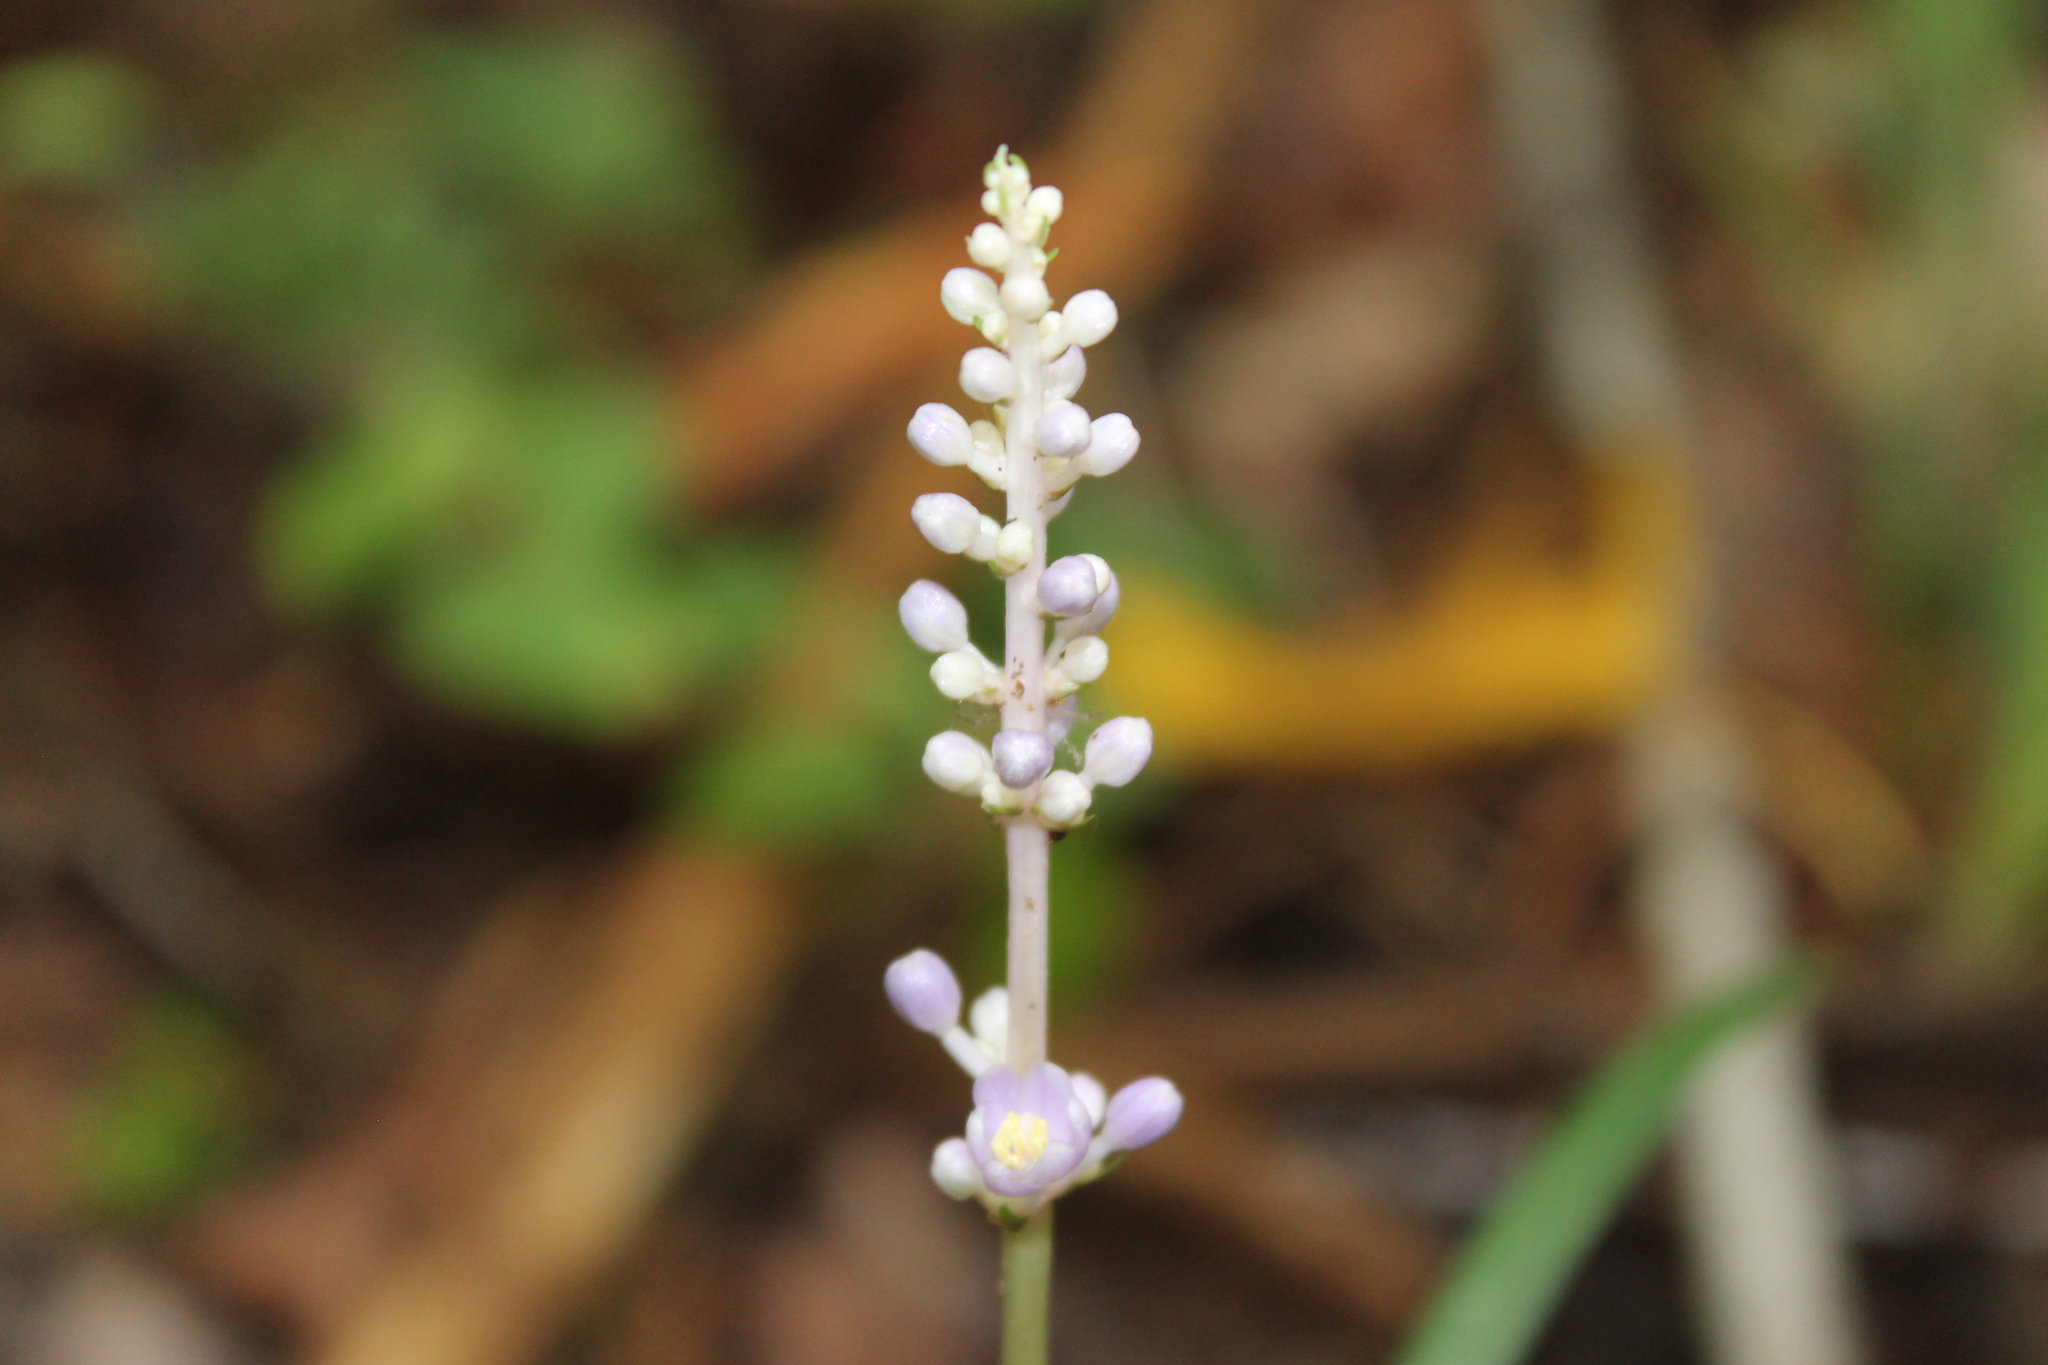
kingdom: Plantae
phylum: Tracheophyta
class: Liliopsida
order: Asparagales
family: Asparagaceae
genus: Liriope
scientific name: Liriope muscari
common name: Big blue lilyturf
